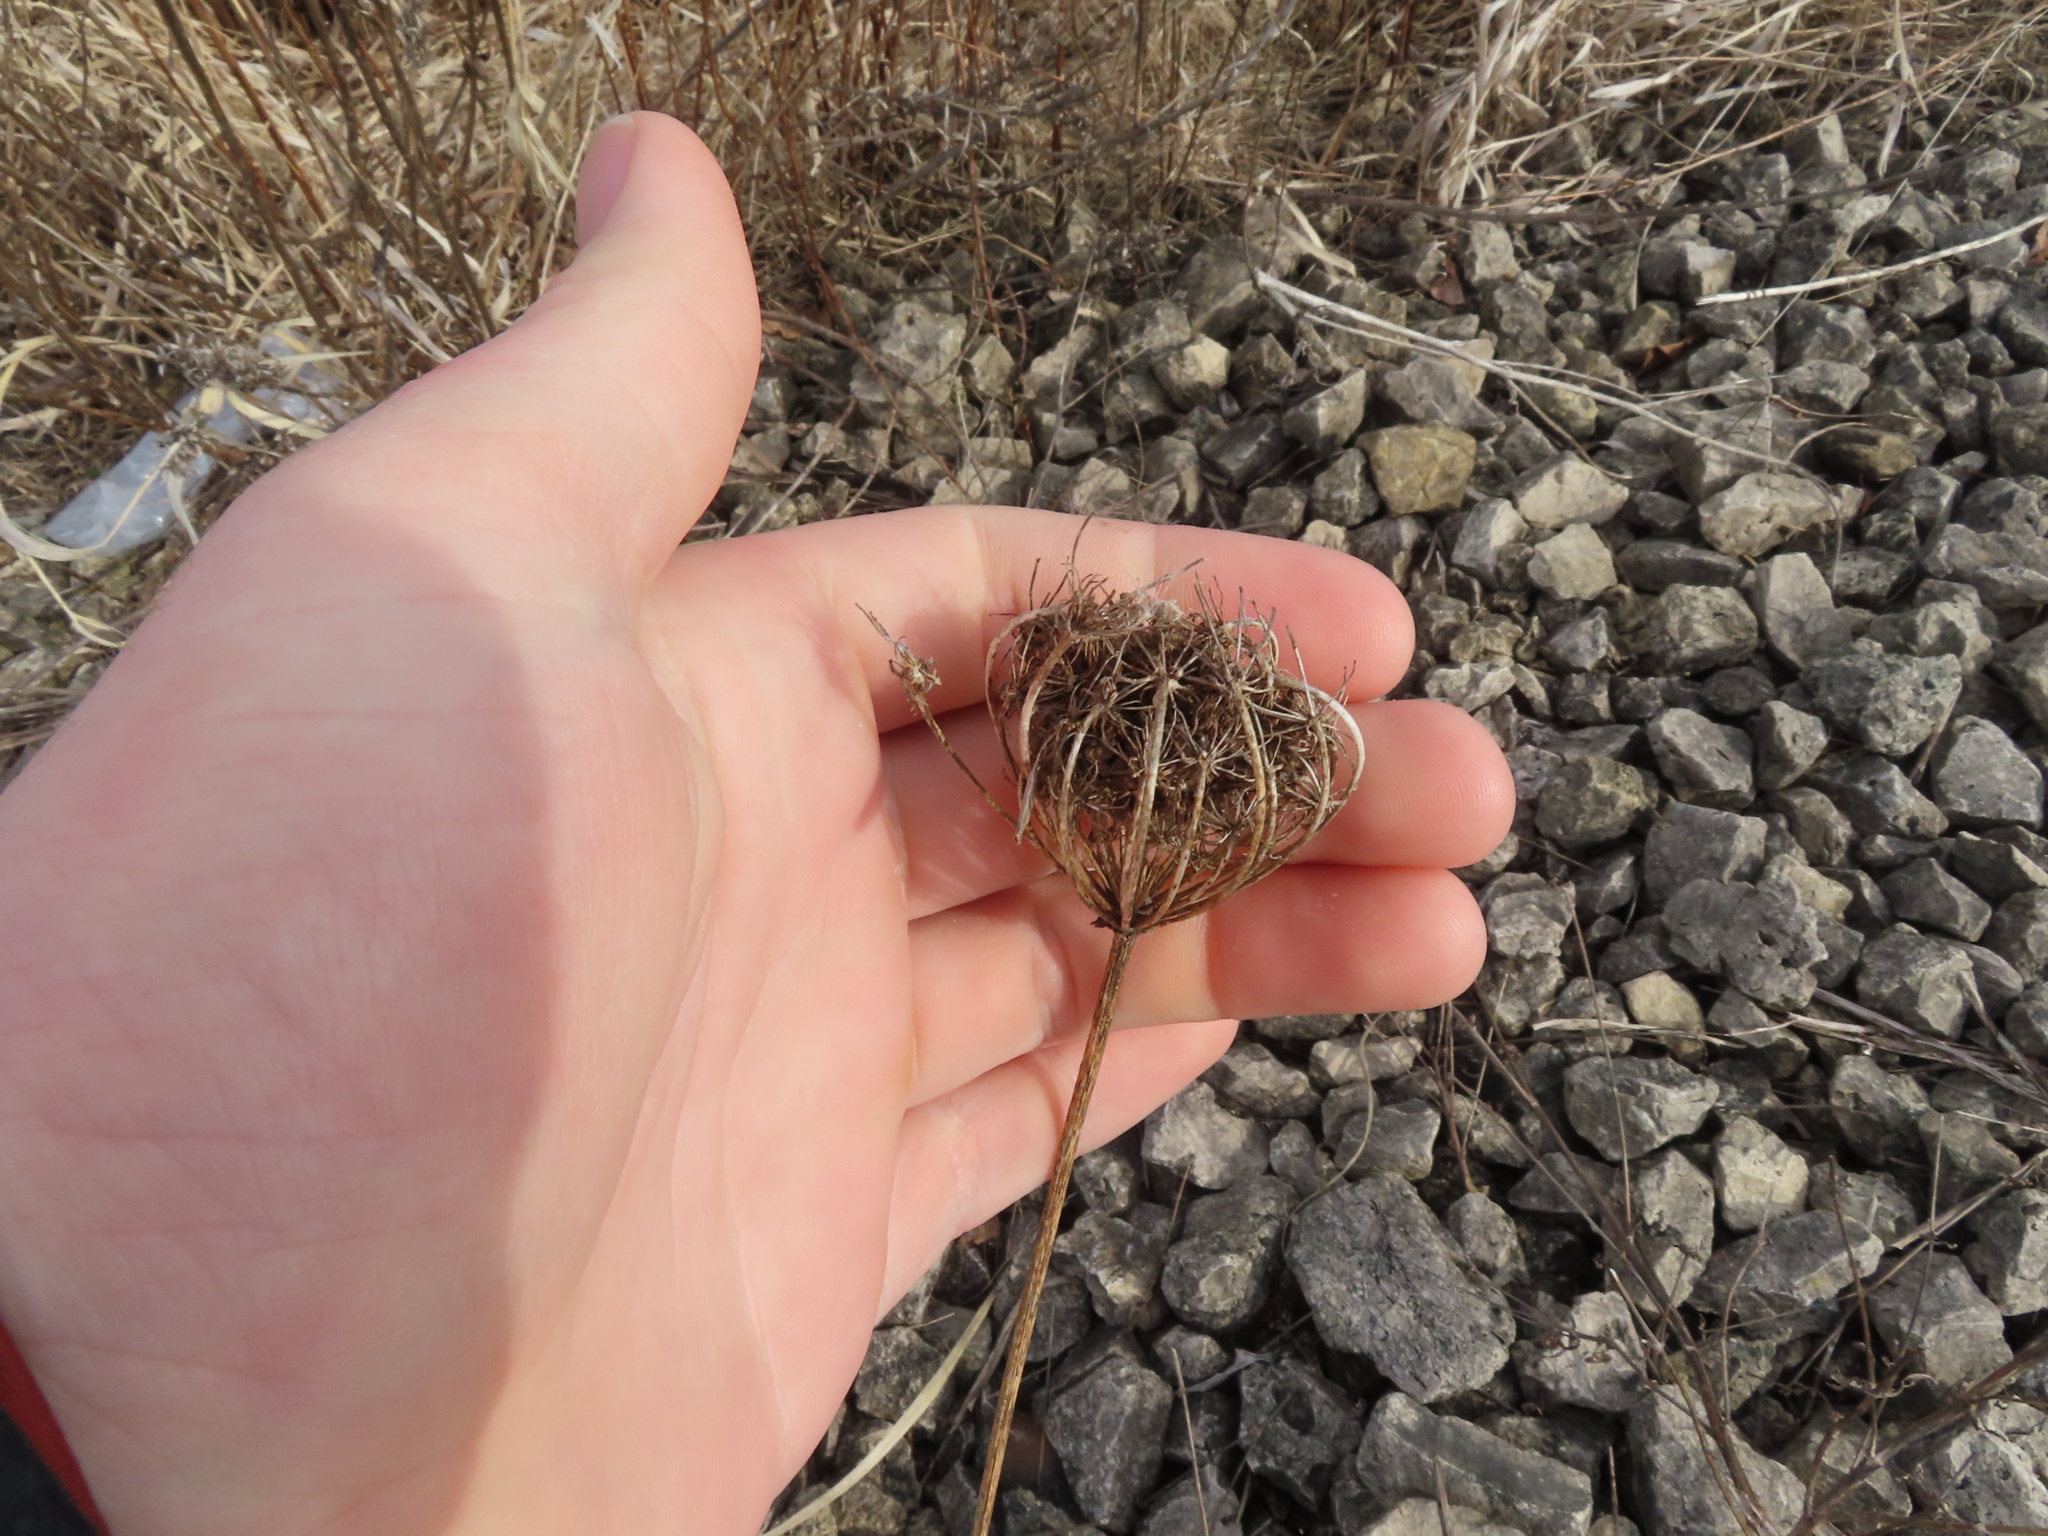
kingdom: Plantae
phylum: Tracheophyta
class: Magnoliopsida
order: Apiales
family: Apiaceae
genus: Daucus
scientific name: Daucus carota
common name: Wild carrot
